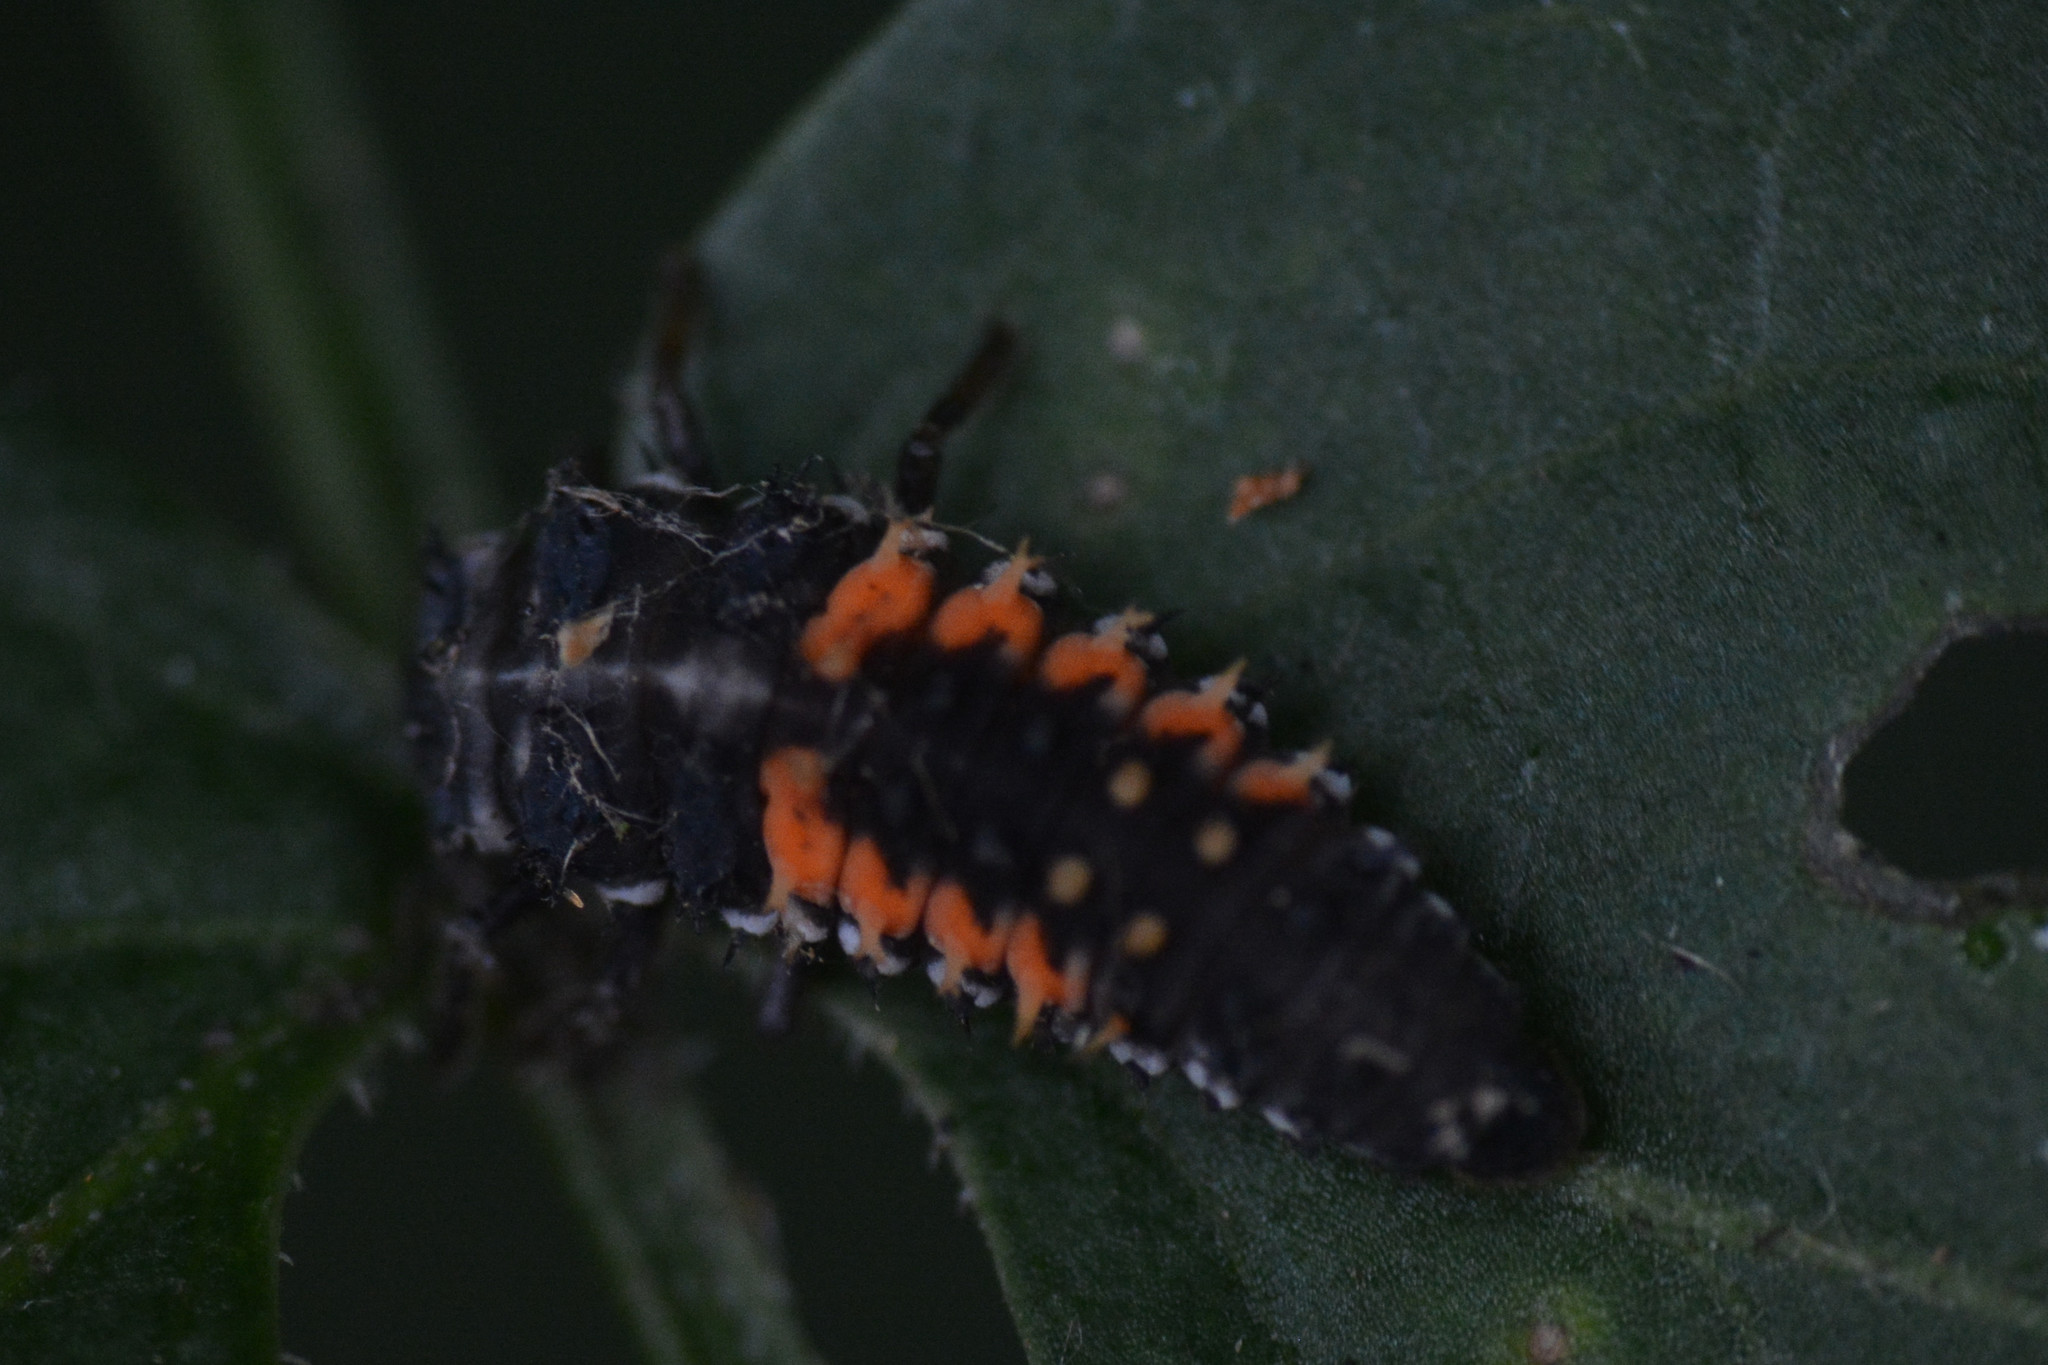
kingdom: Animalia
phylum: Arthropoda
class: Insecta
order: Coleoptera
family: Coccinellidae
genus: Harmonia
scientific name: Harmonia axyridis
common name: Harlequin ladybird
